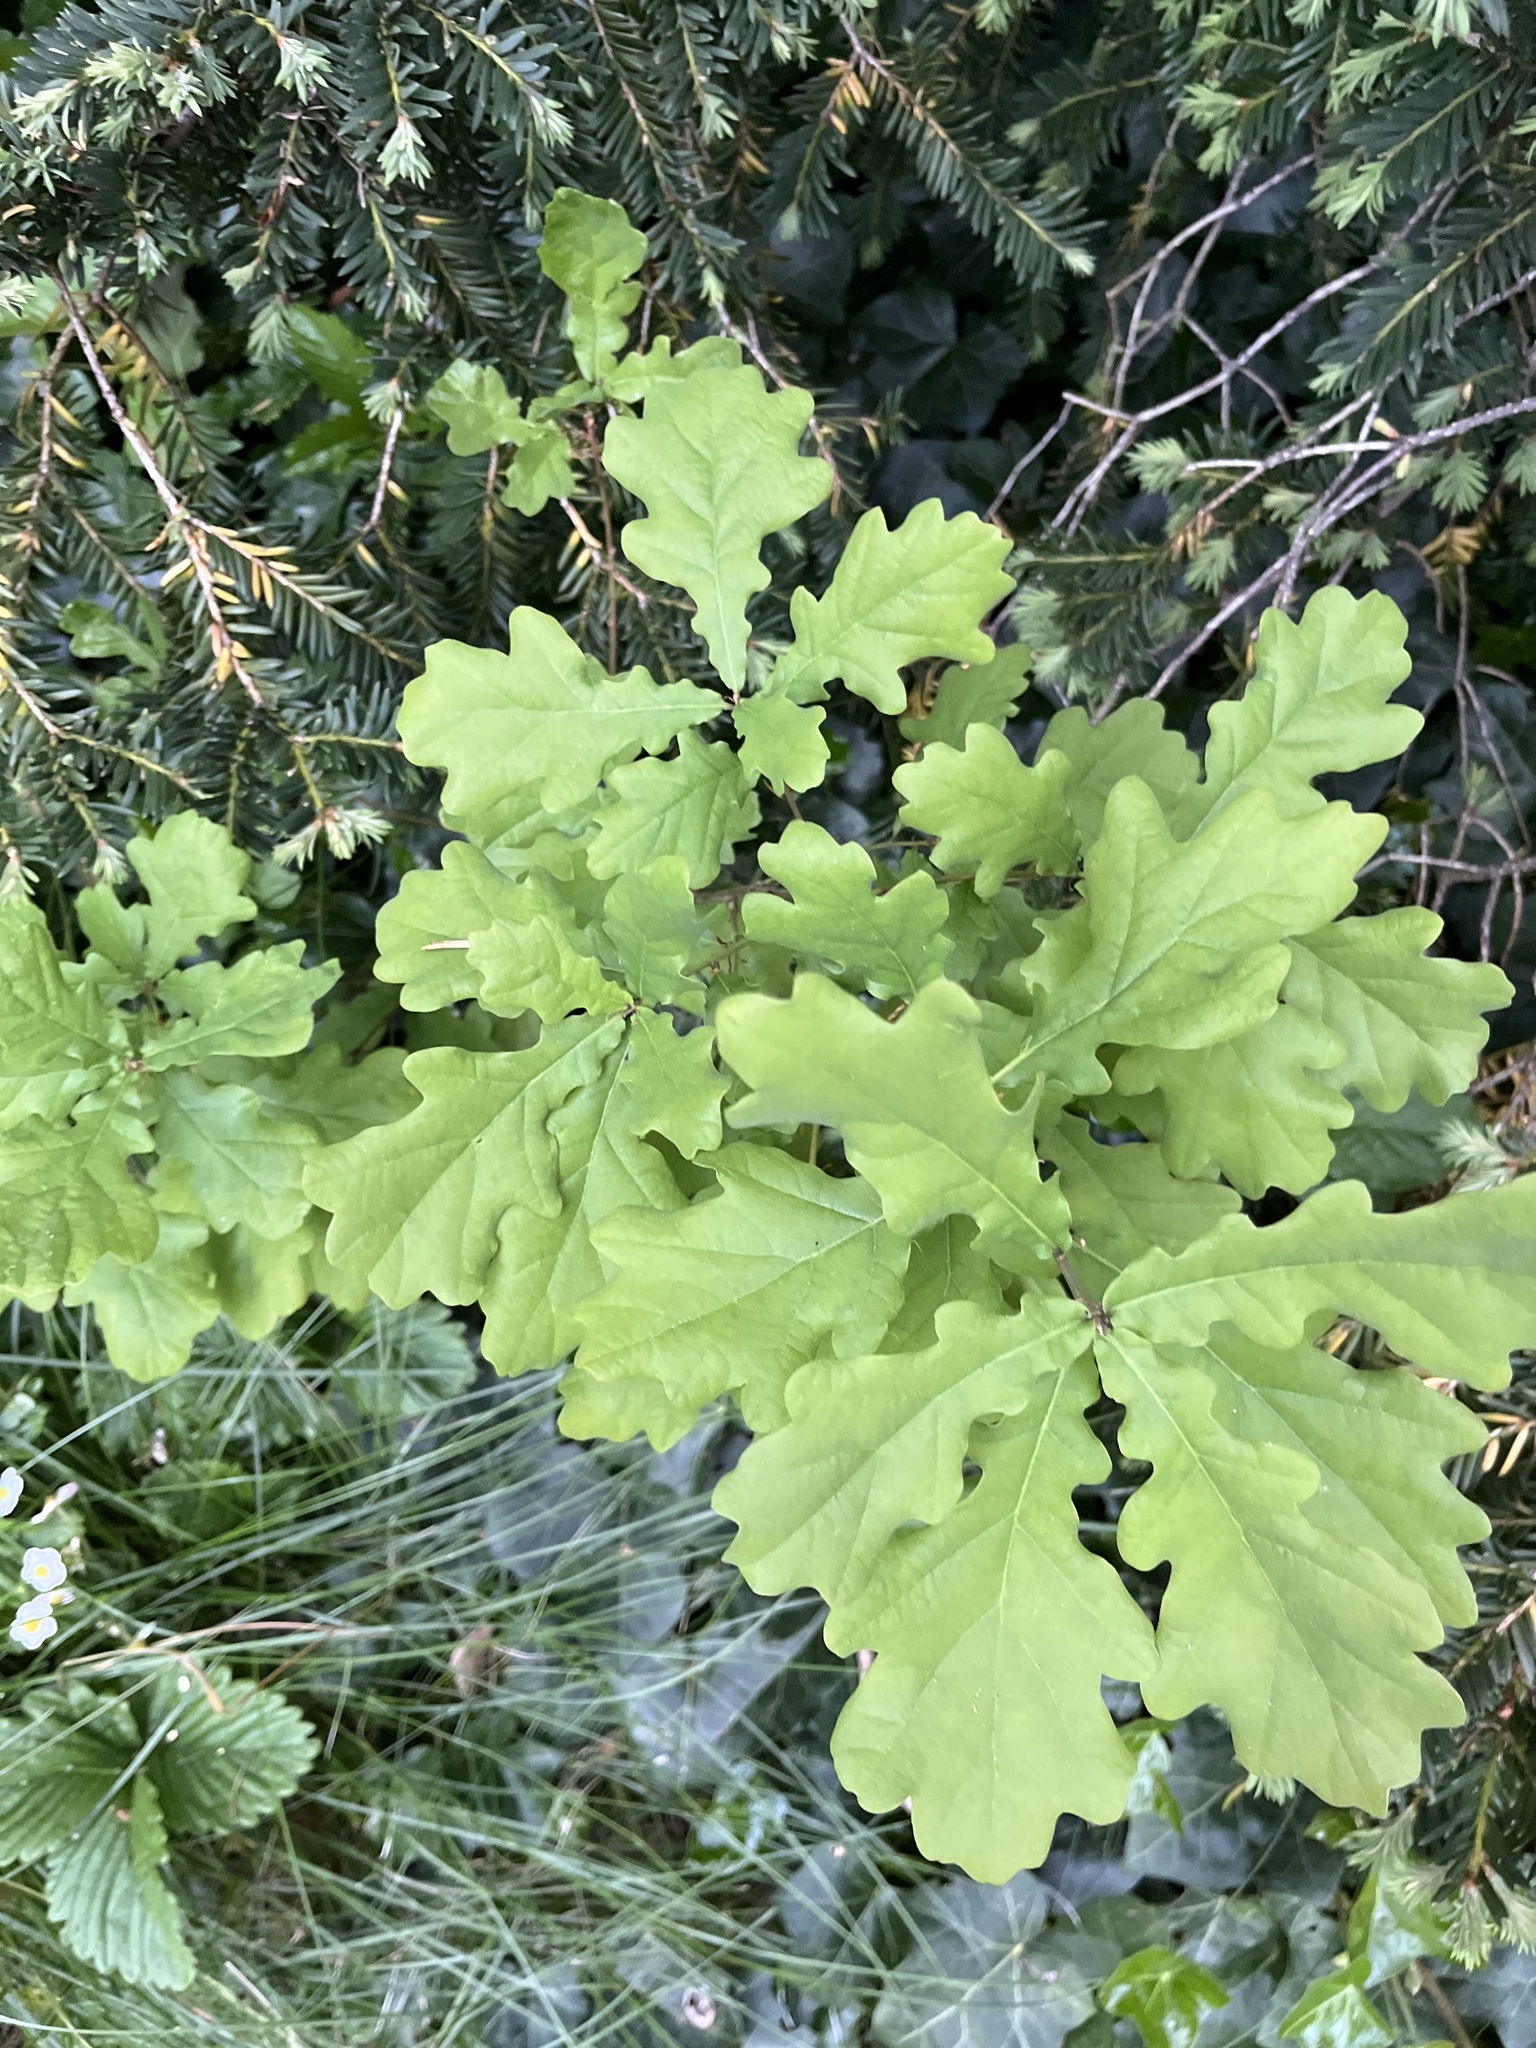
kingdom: Plantae
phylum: Tracheophyta
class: Magnoliopsida
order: Fagales
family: Fagaceae
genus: Quercus
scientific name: Quercus robur
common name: Pedunculate oak
